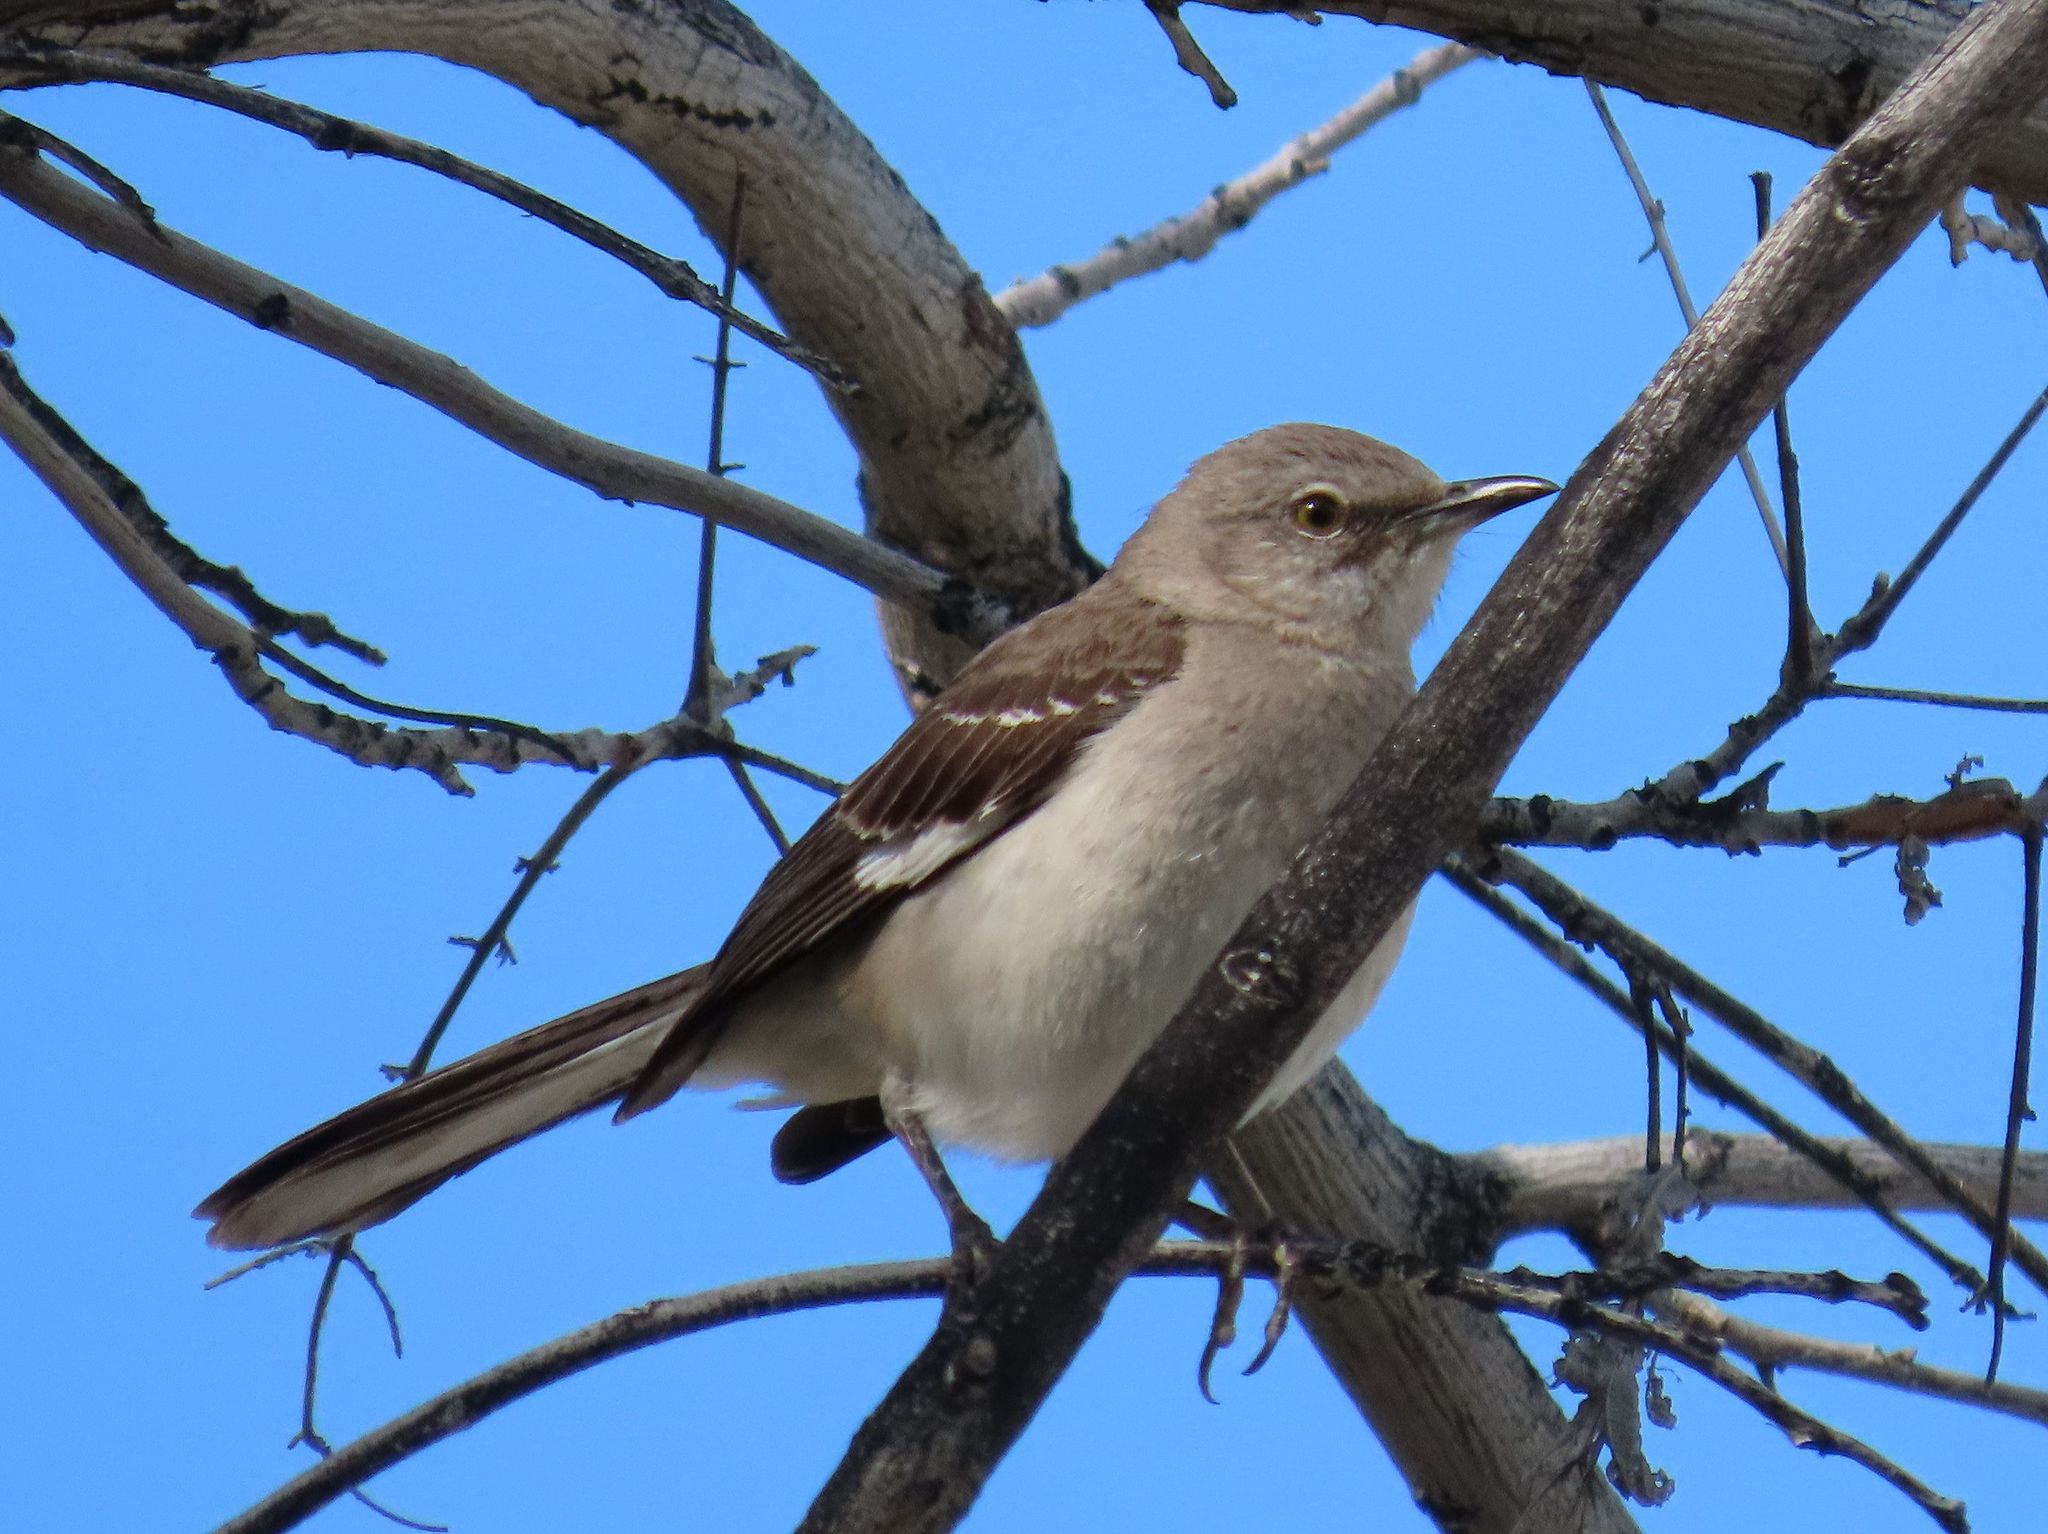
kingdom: Animalia
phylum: Chordata
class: Aves
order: Passeriformes
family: Mimidae
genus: Mimus
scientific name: Mimus polyglottos
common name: Northern mockingbird
